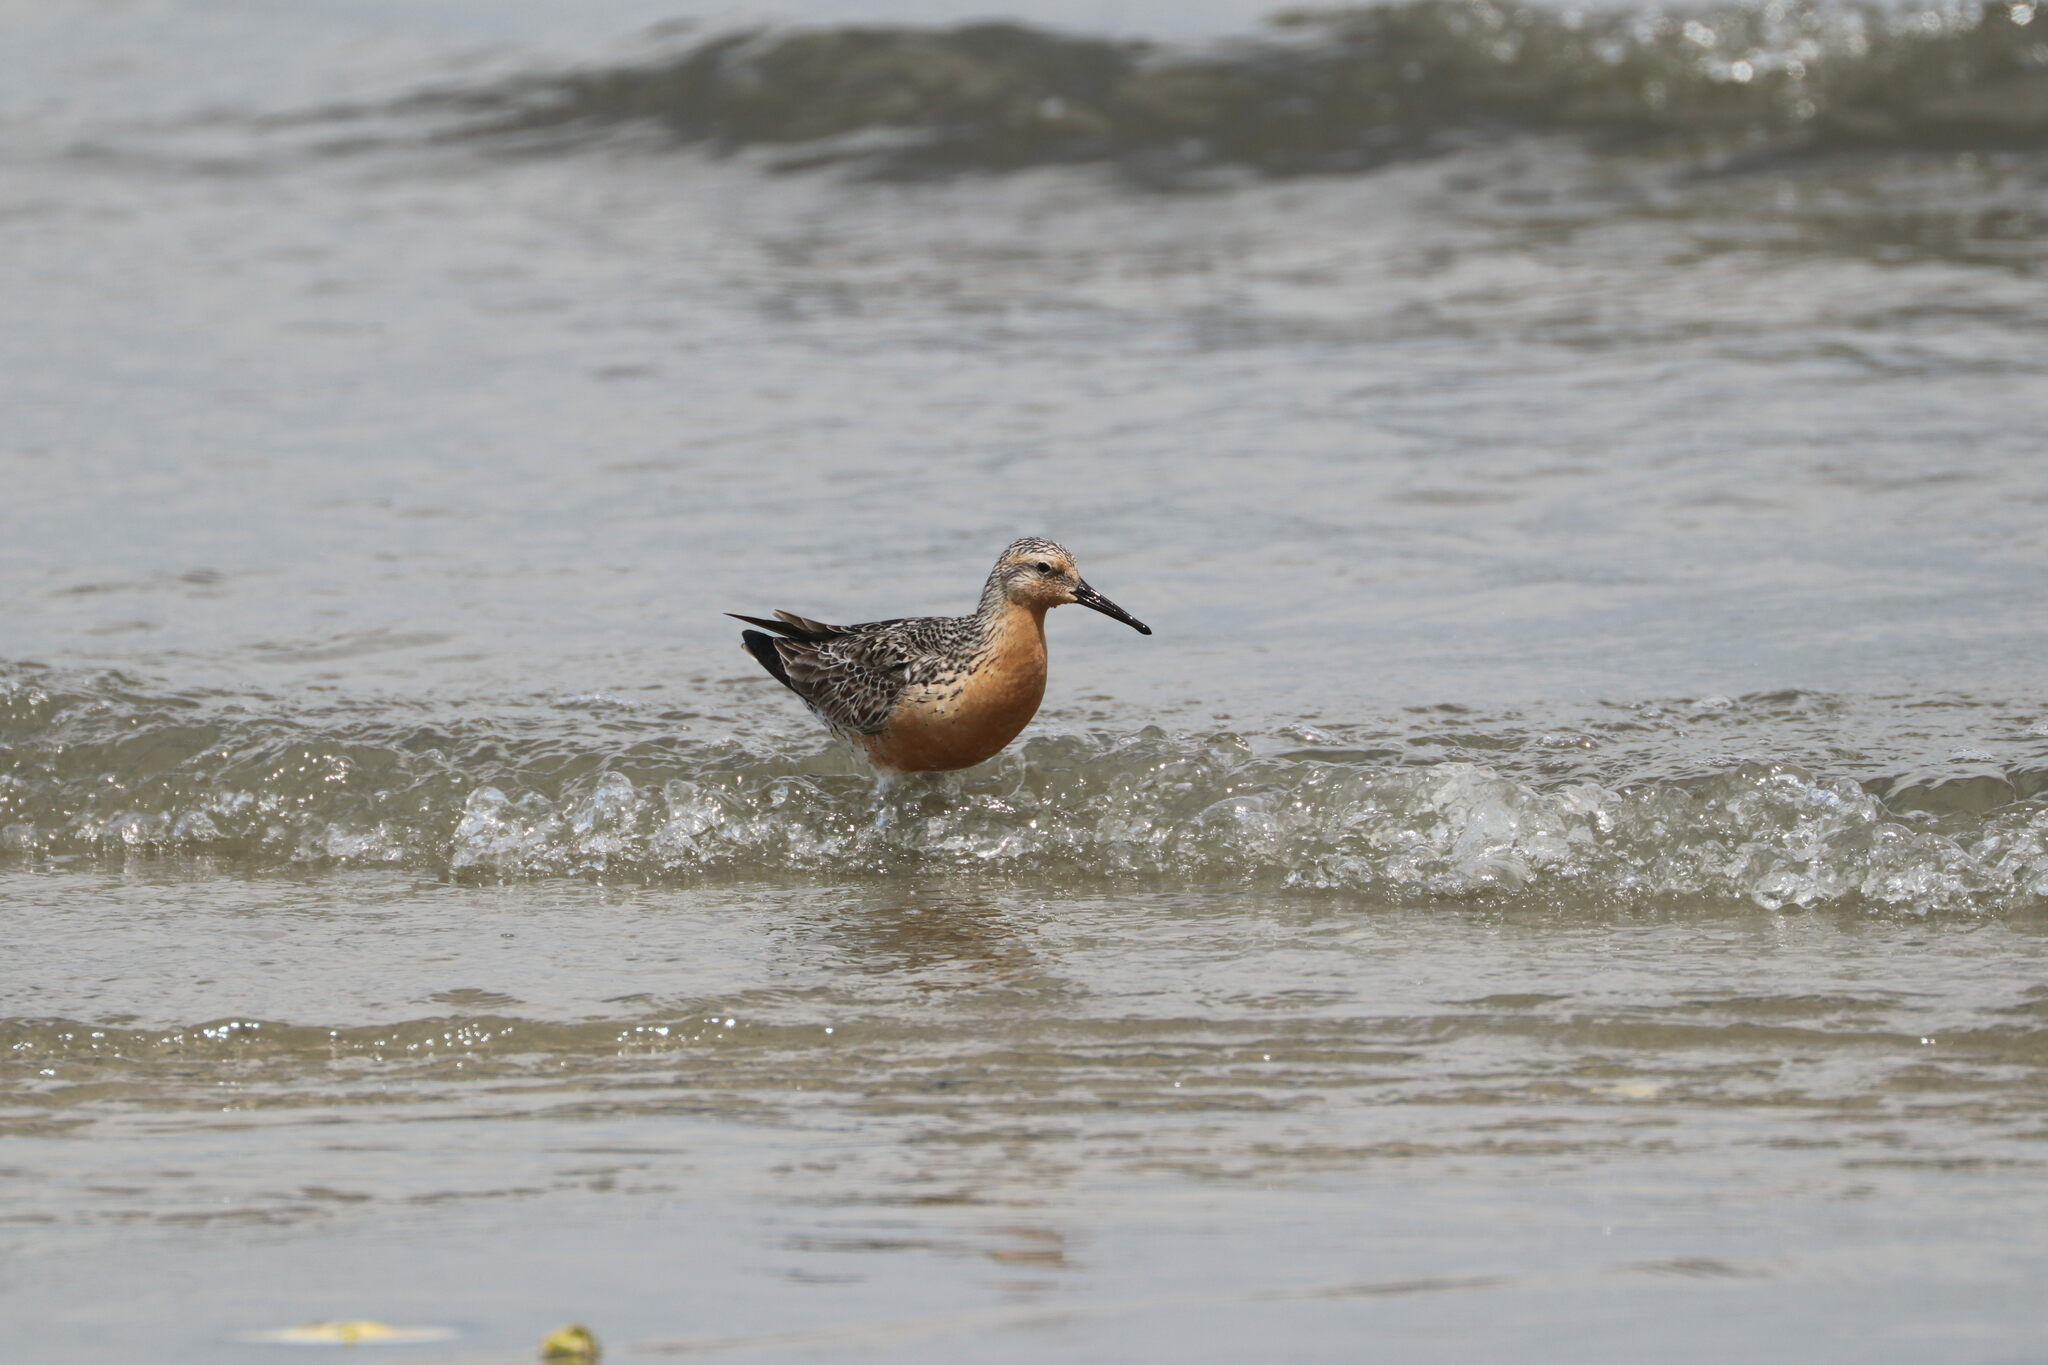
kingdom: Animalia
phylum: Chordata
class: Aves
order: Charadriiformes
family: Scolopacidae
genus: Calidris
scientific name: Calidris canutus
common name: Red knot
